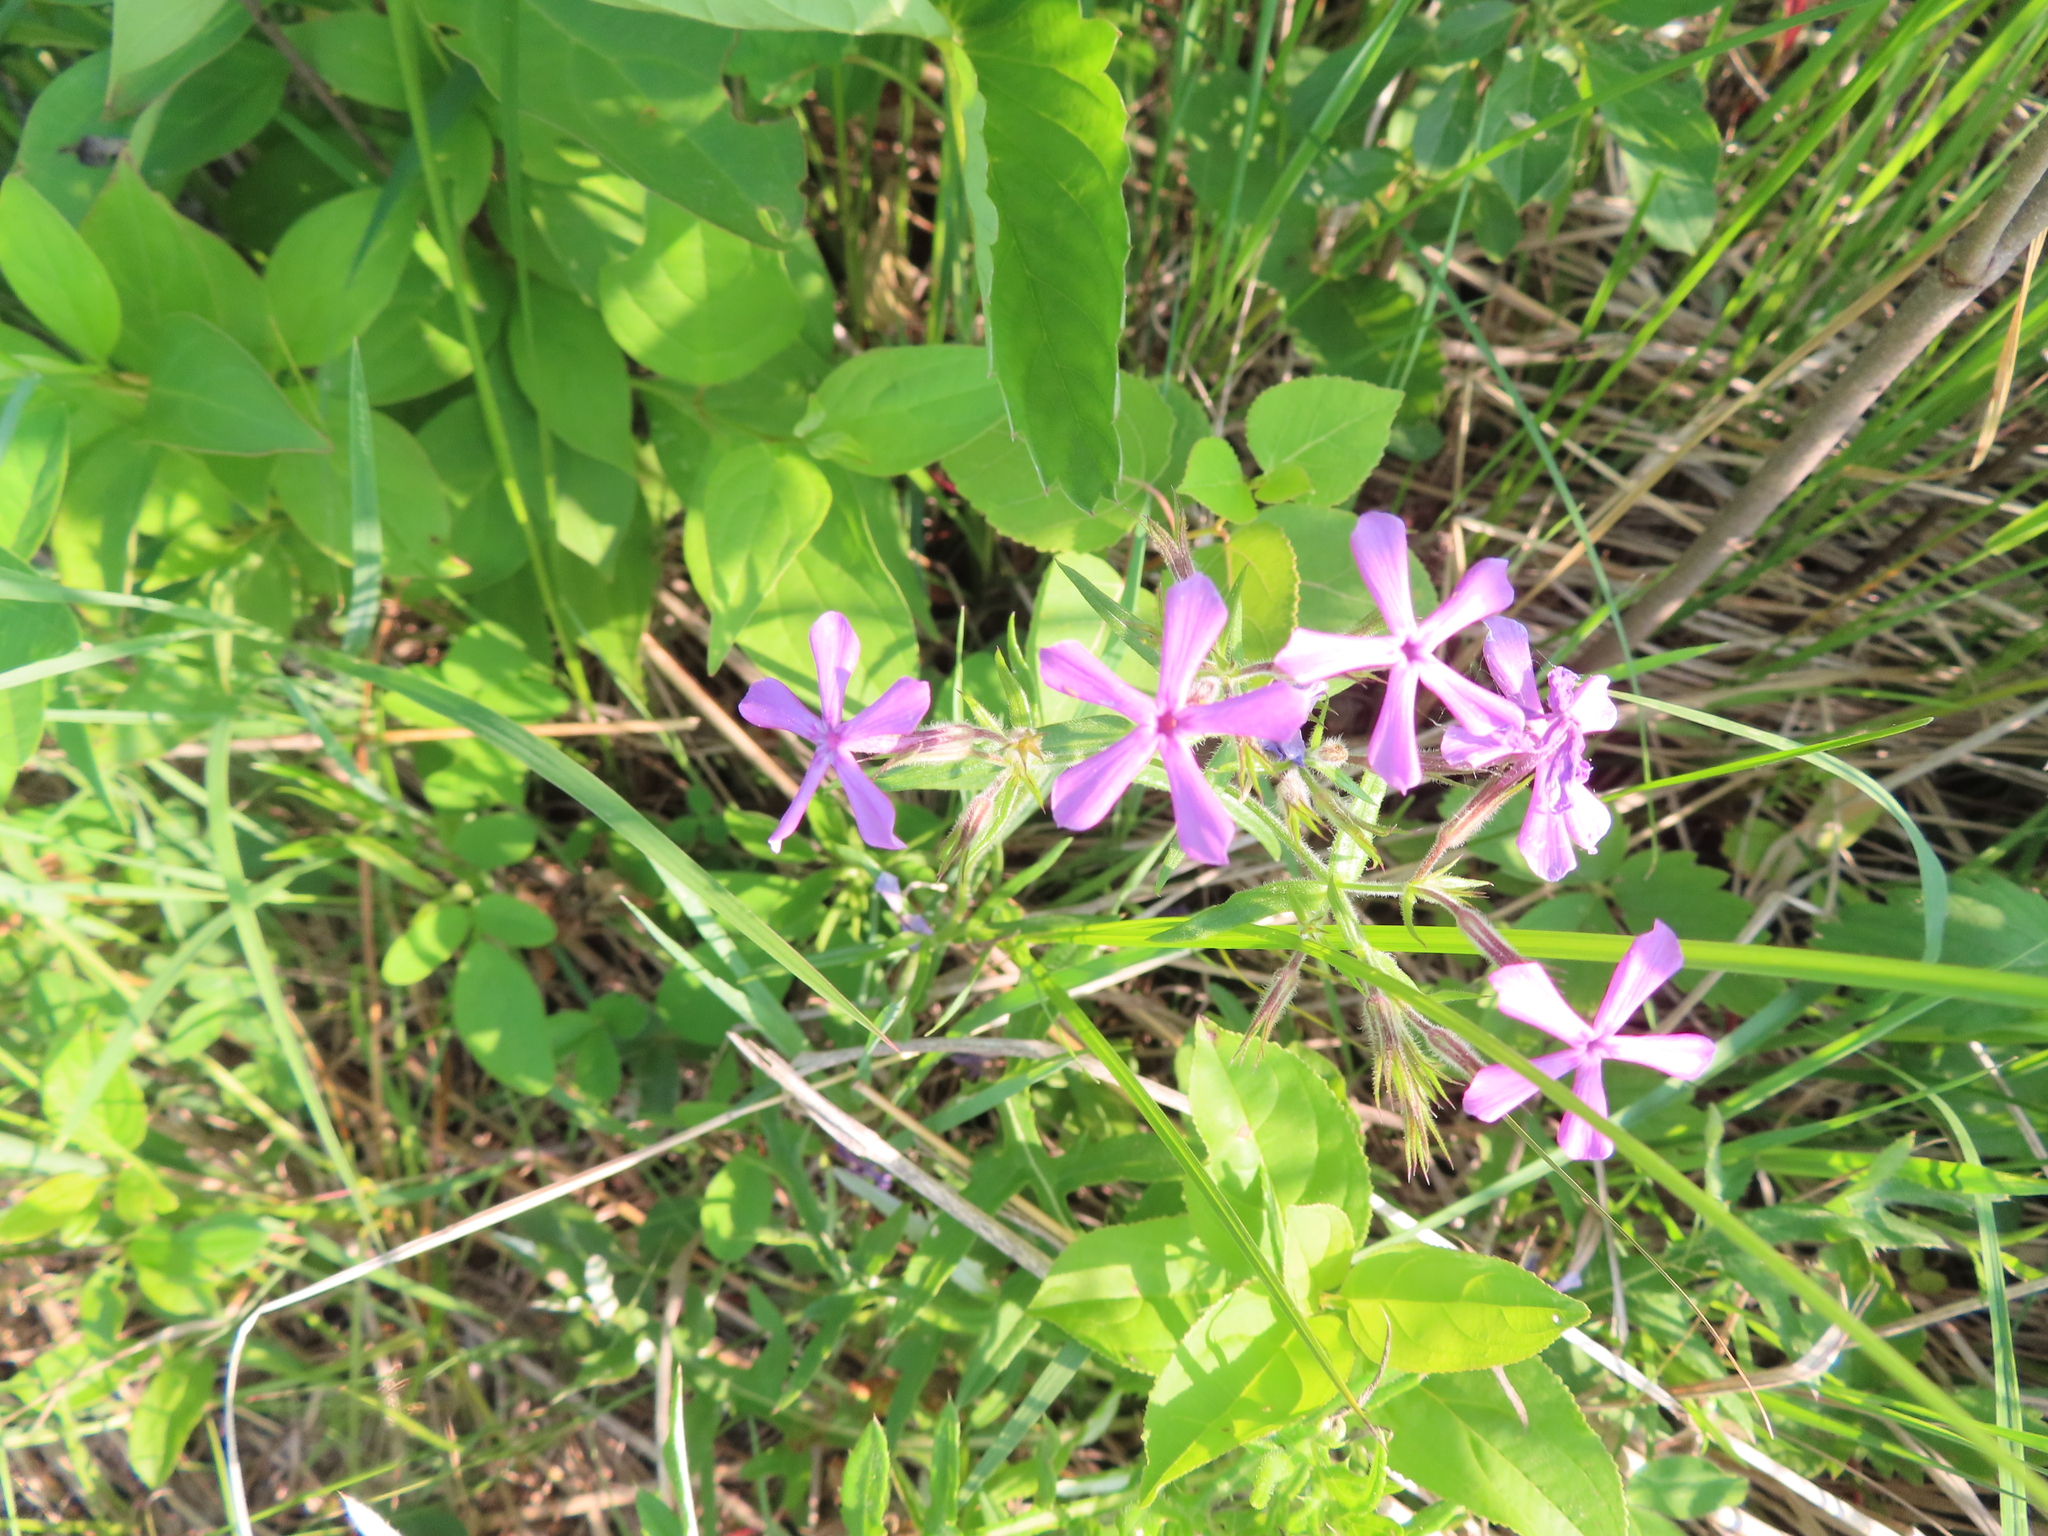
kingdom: Plantae
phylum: Tracheophyta
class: Magnoliopsida
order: Ericales
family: Polemoniaceae
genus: Phlox
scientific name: Phlox pilosa
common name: Prairie phlox
